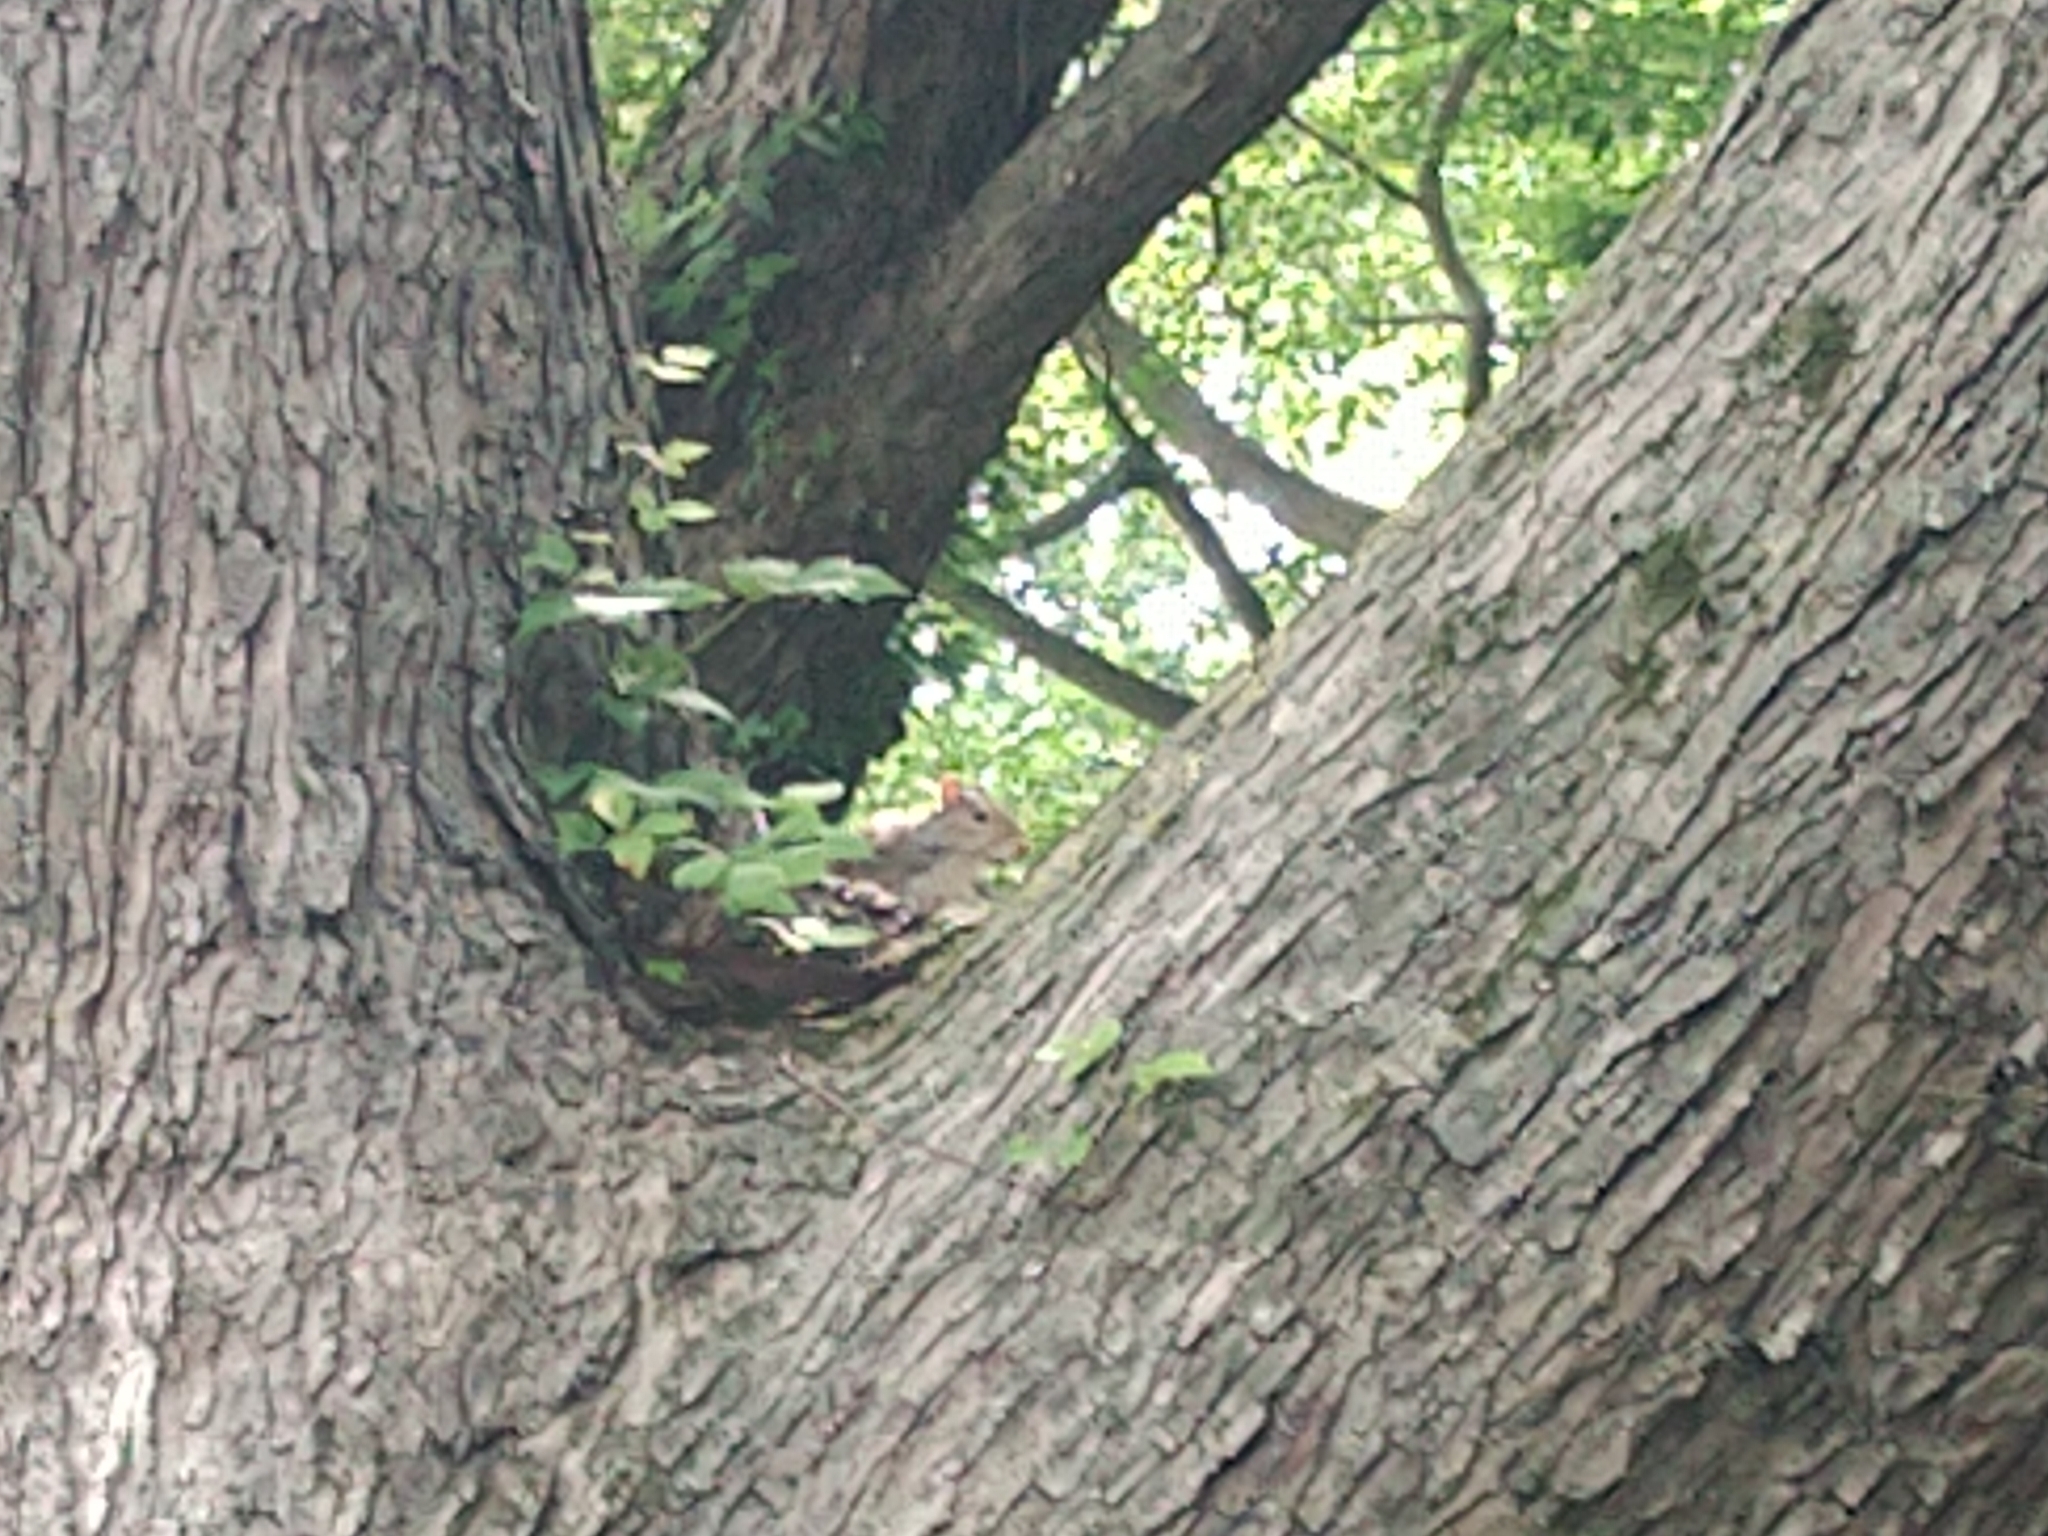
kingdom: Animalia
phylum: Chordata
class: Mammalia
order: Rodentia
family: Sciuridae
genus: Sciurus
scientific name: Sciurus carolinensis
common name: Eastern gray squirrel
